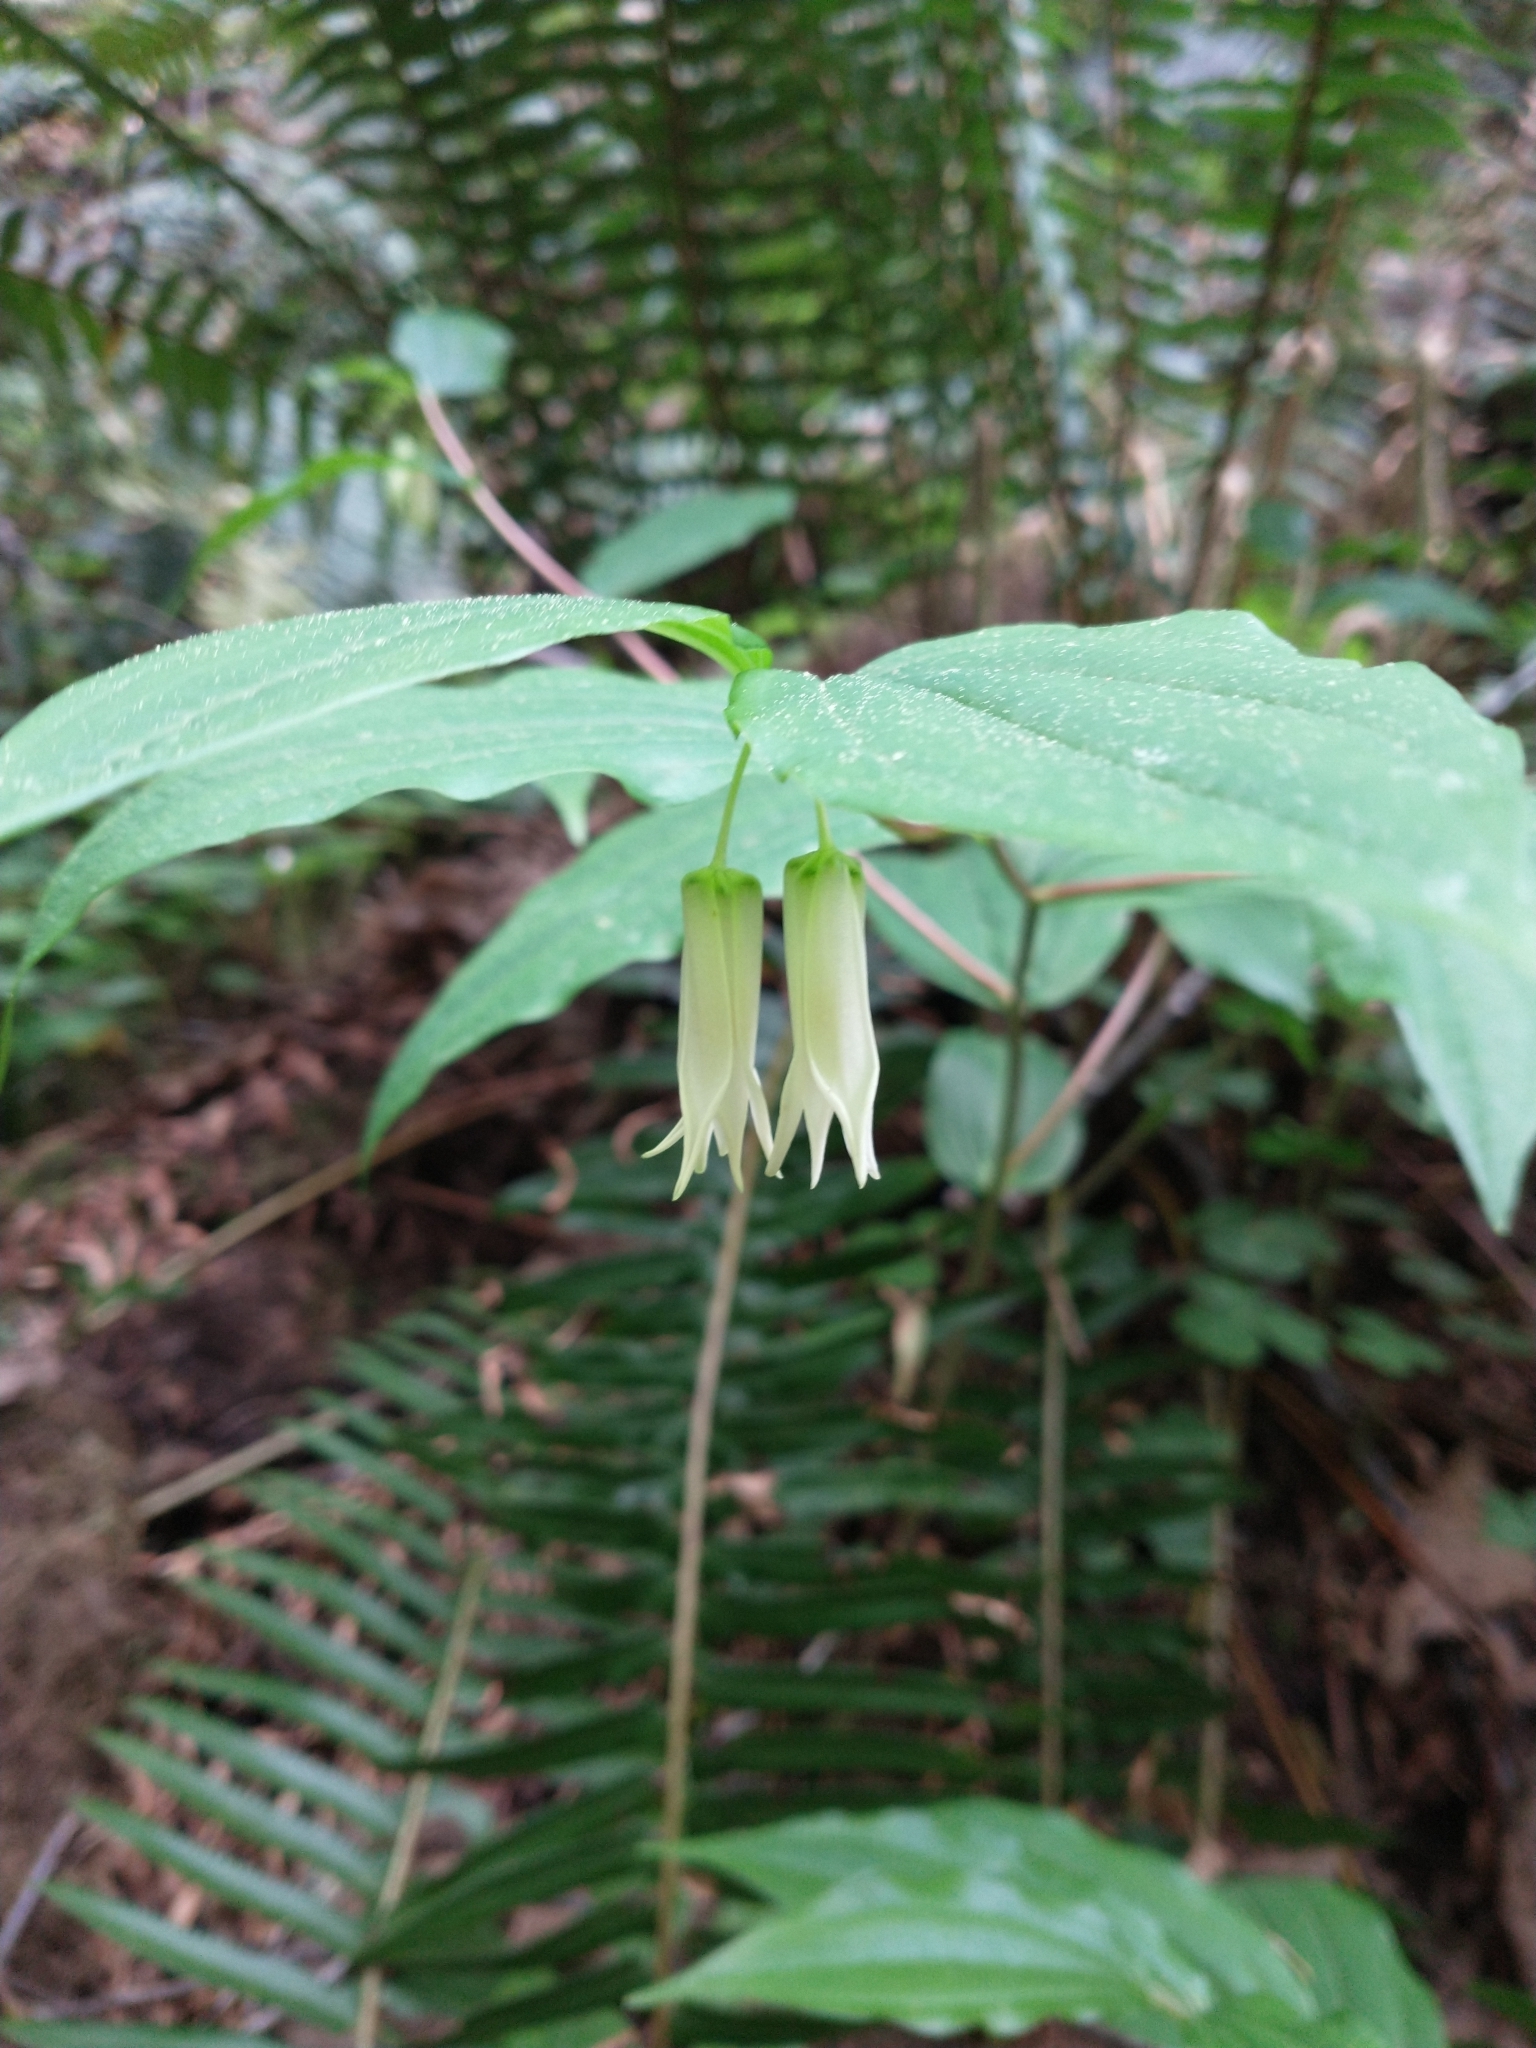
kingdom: Plantae
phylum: Tracheophyta
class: Liliopsida
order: Liliales
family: Liliaceae
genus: Prosartes
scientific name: Prosartes smithii
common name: Fairy-lantern
